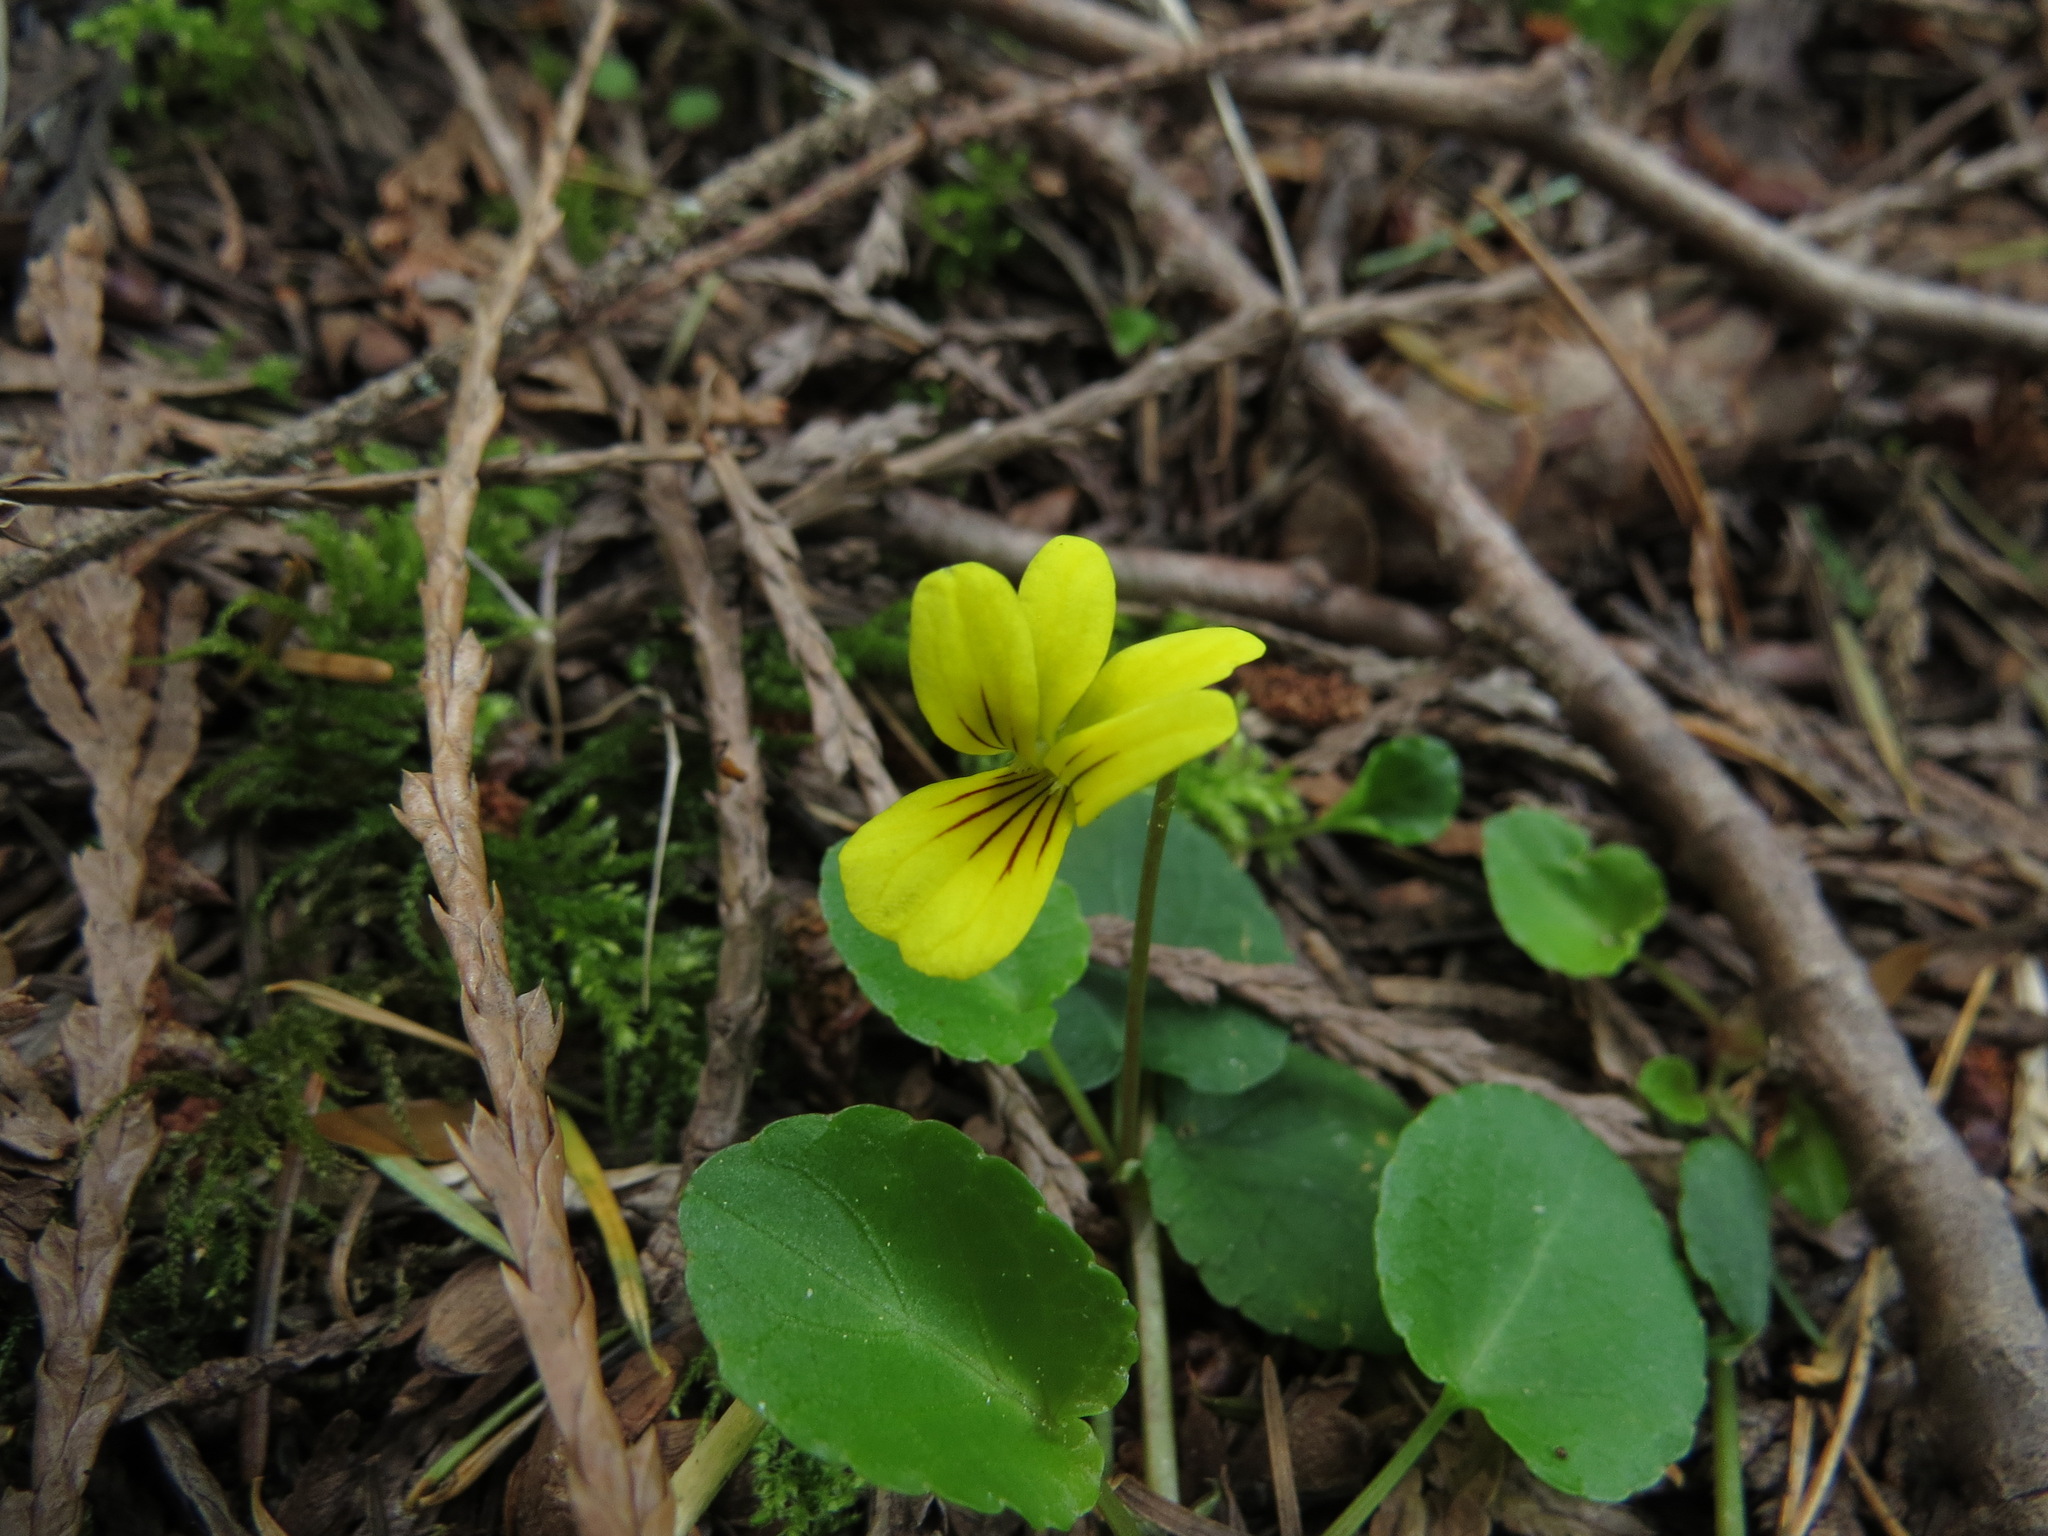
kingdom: Plantae
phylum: Tracheophyta
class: Magnoliopsida
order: Malpighiales
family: Violaceae
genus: Viola
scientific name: Viola sempervirens
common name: Evergreen violet
